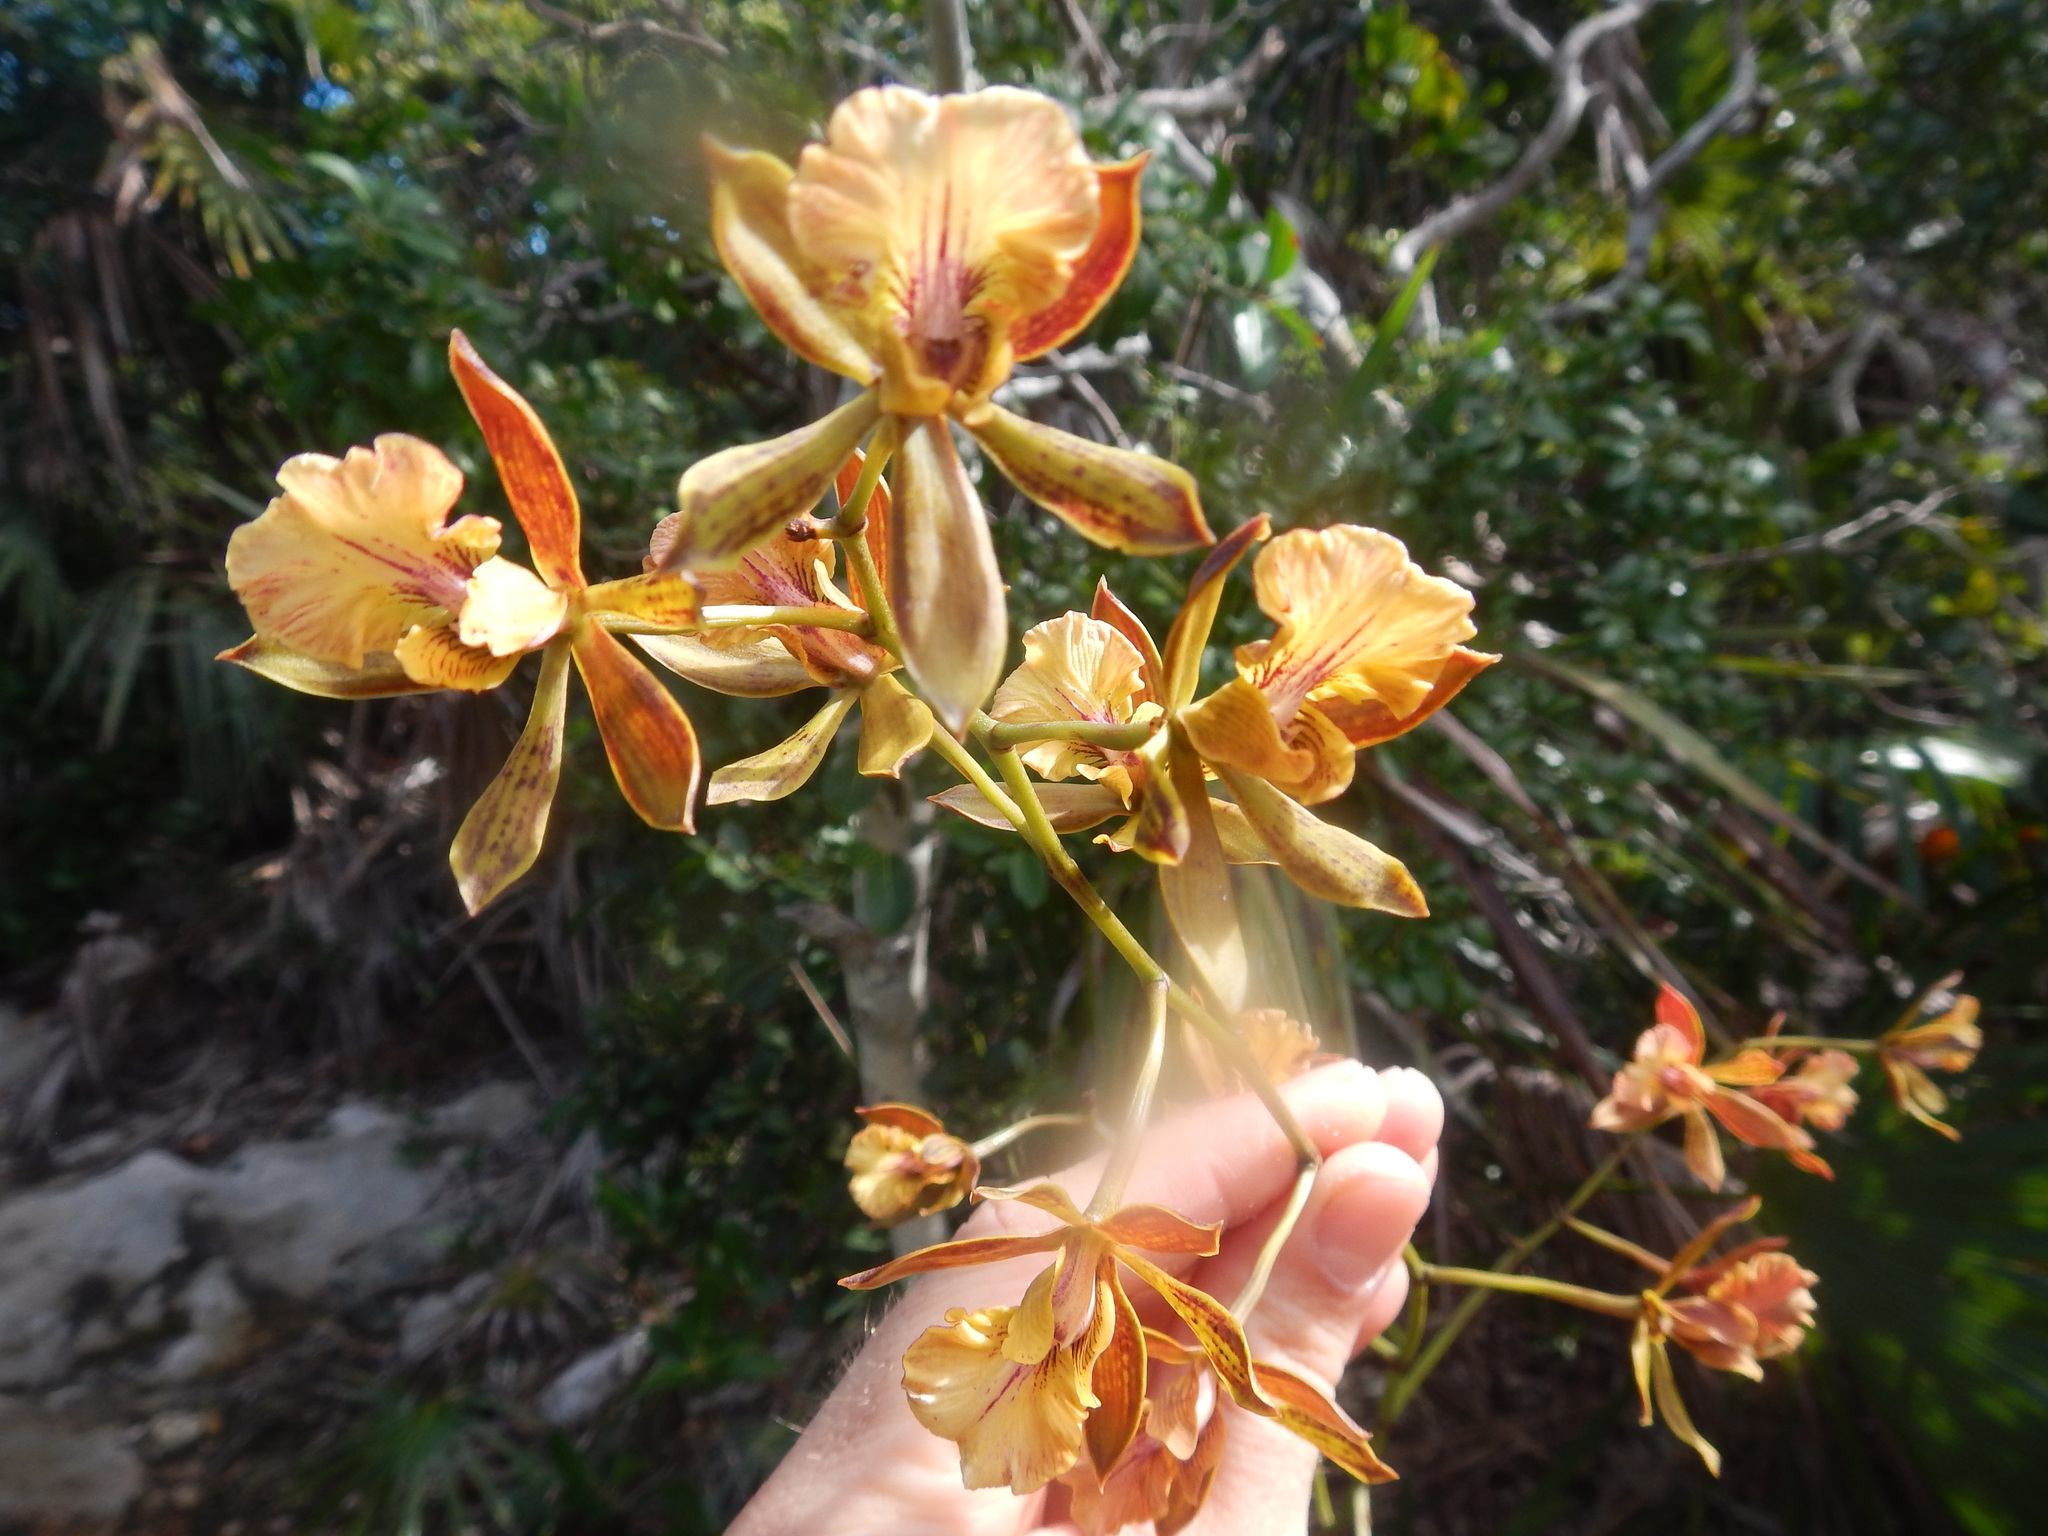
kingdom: Plantae
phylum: Tracheophyta
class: Liliopsida
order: Asparagales
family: Orchidaceae
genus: Encyclia
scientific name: Encyclia altissima
